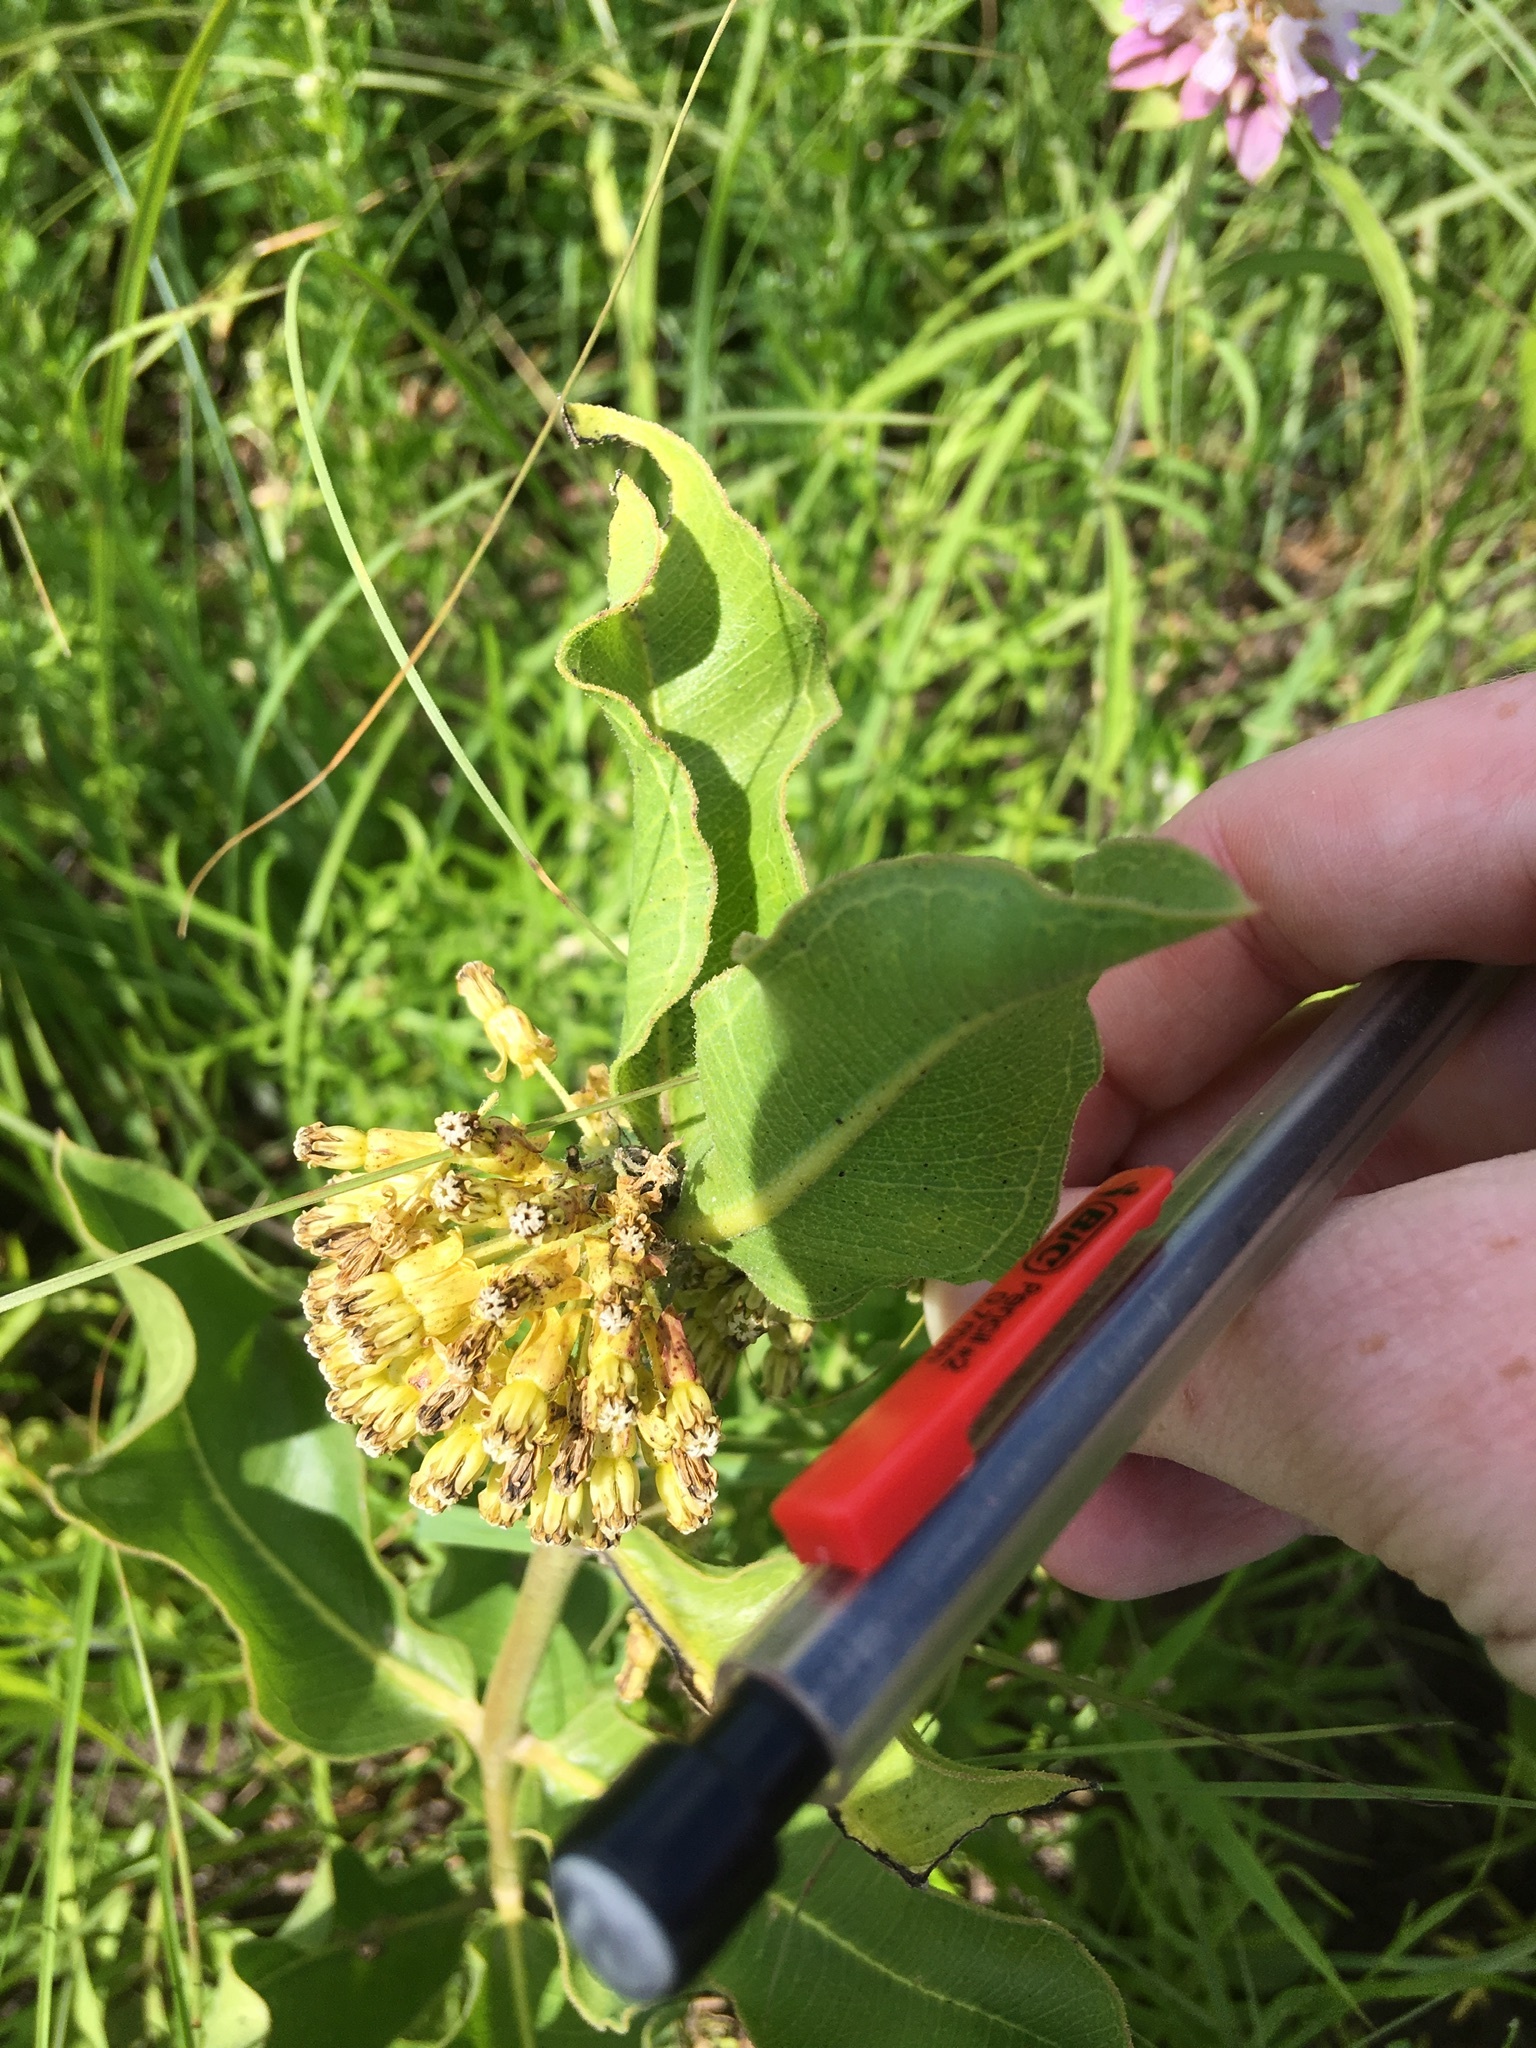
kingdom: Plantae
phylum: Tracheophyta
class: Magnoliopsida
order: Gentianales
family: Apocynaceae
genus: Asclepias
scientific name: Asclepias viridiflora
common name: Green comet milkweed
